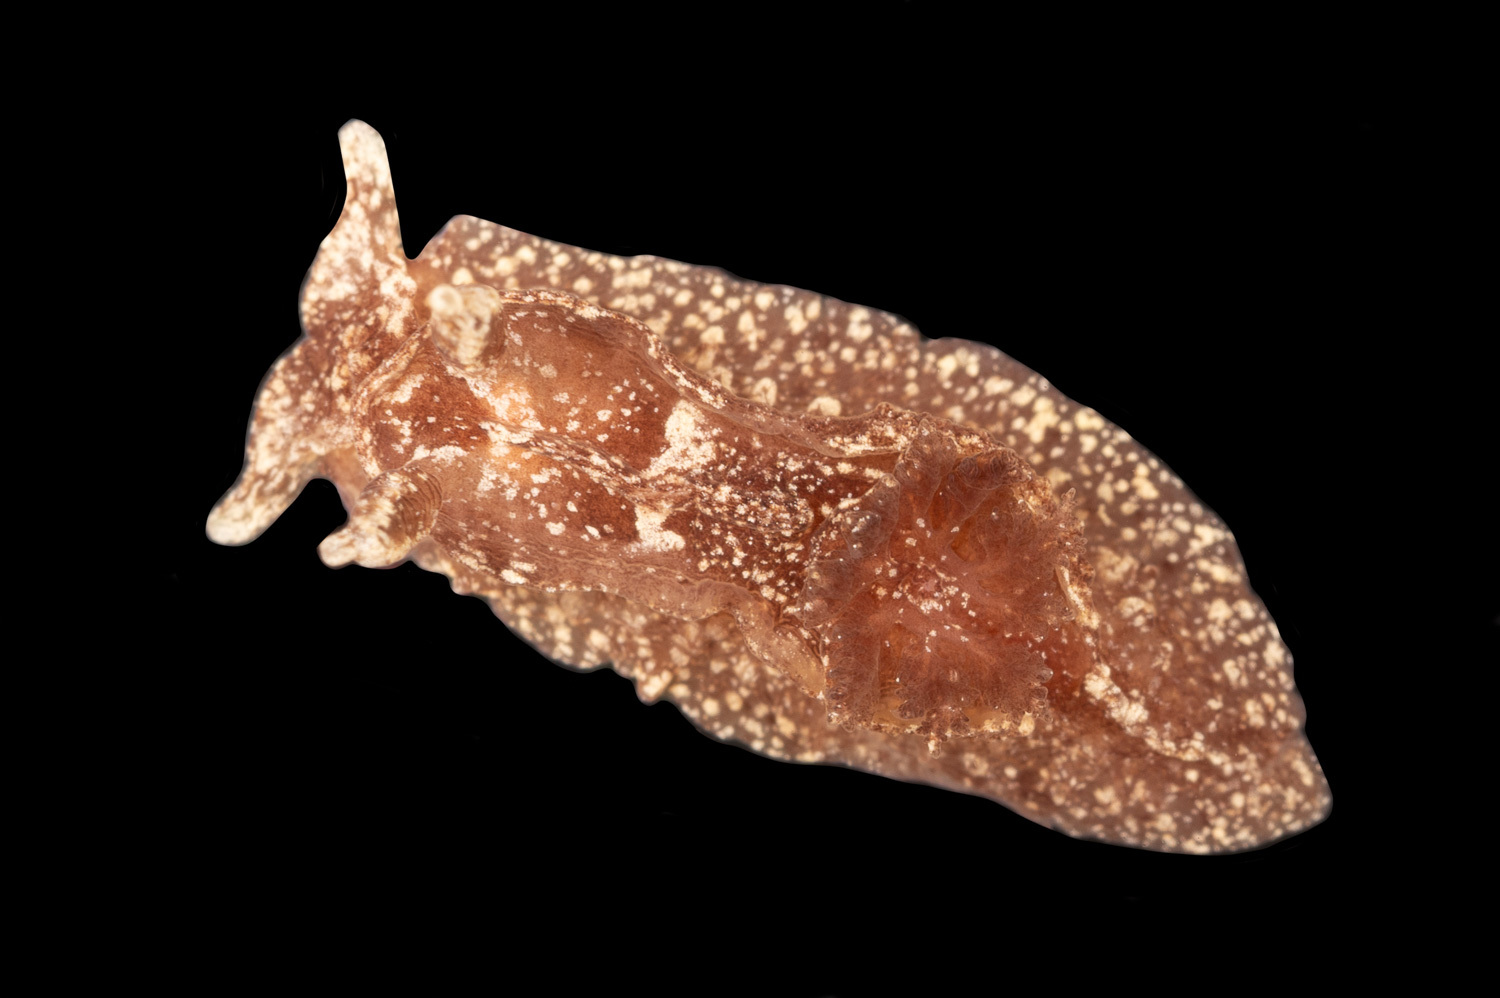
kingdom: Animalia
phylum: Mollusca
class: Gastropoda
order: Nudibranchia
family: Goniodorididae
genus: Pelagella
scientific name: Pelagella castanea
